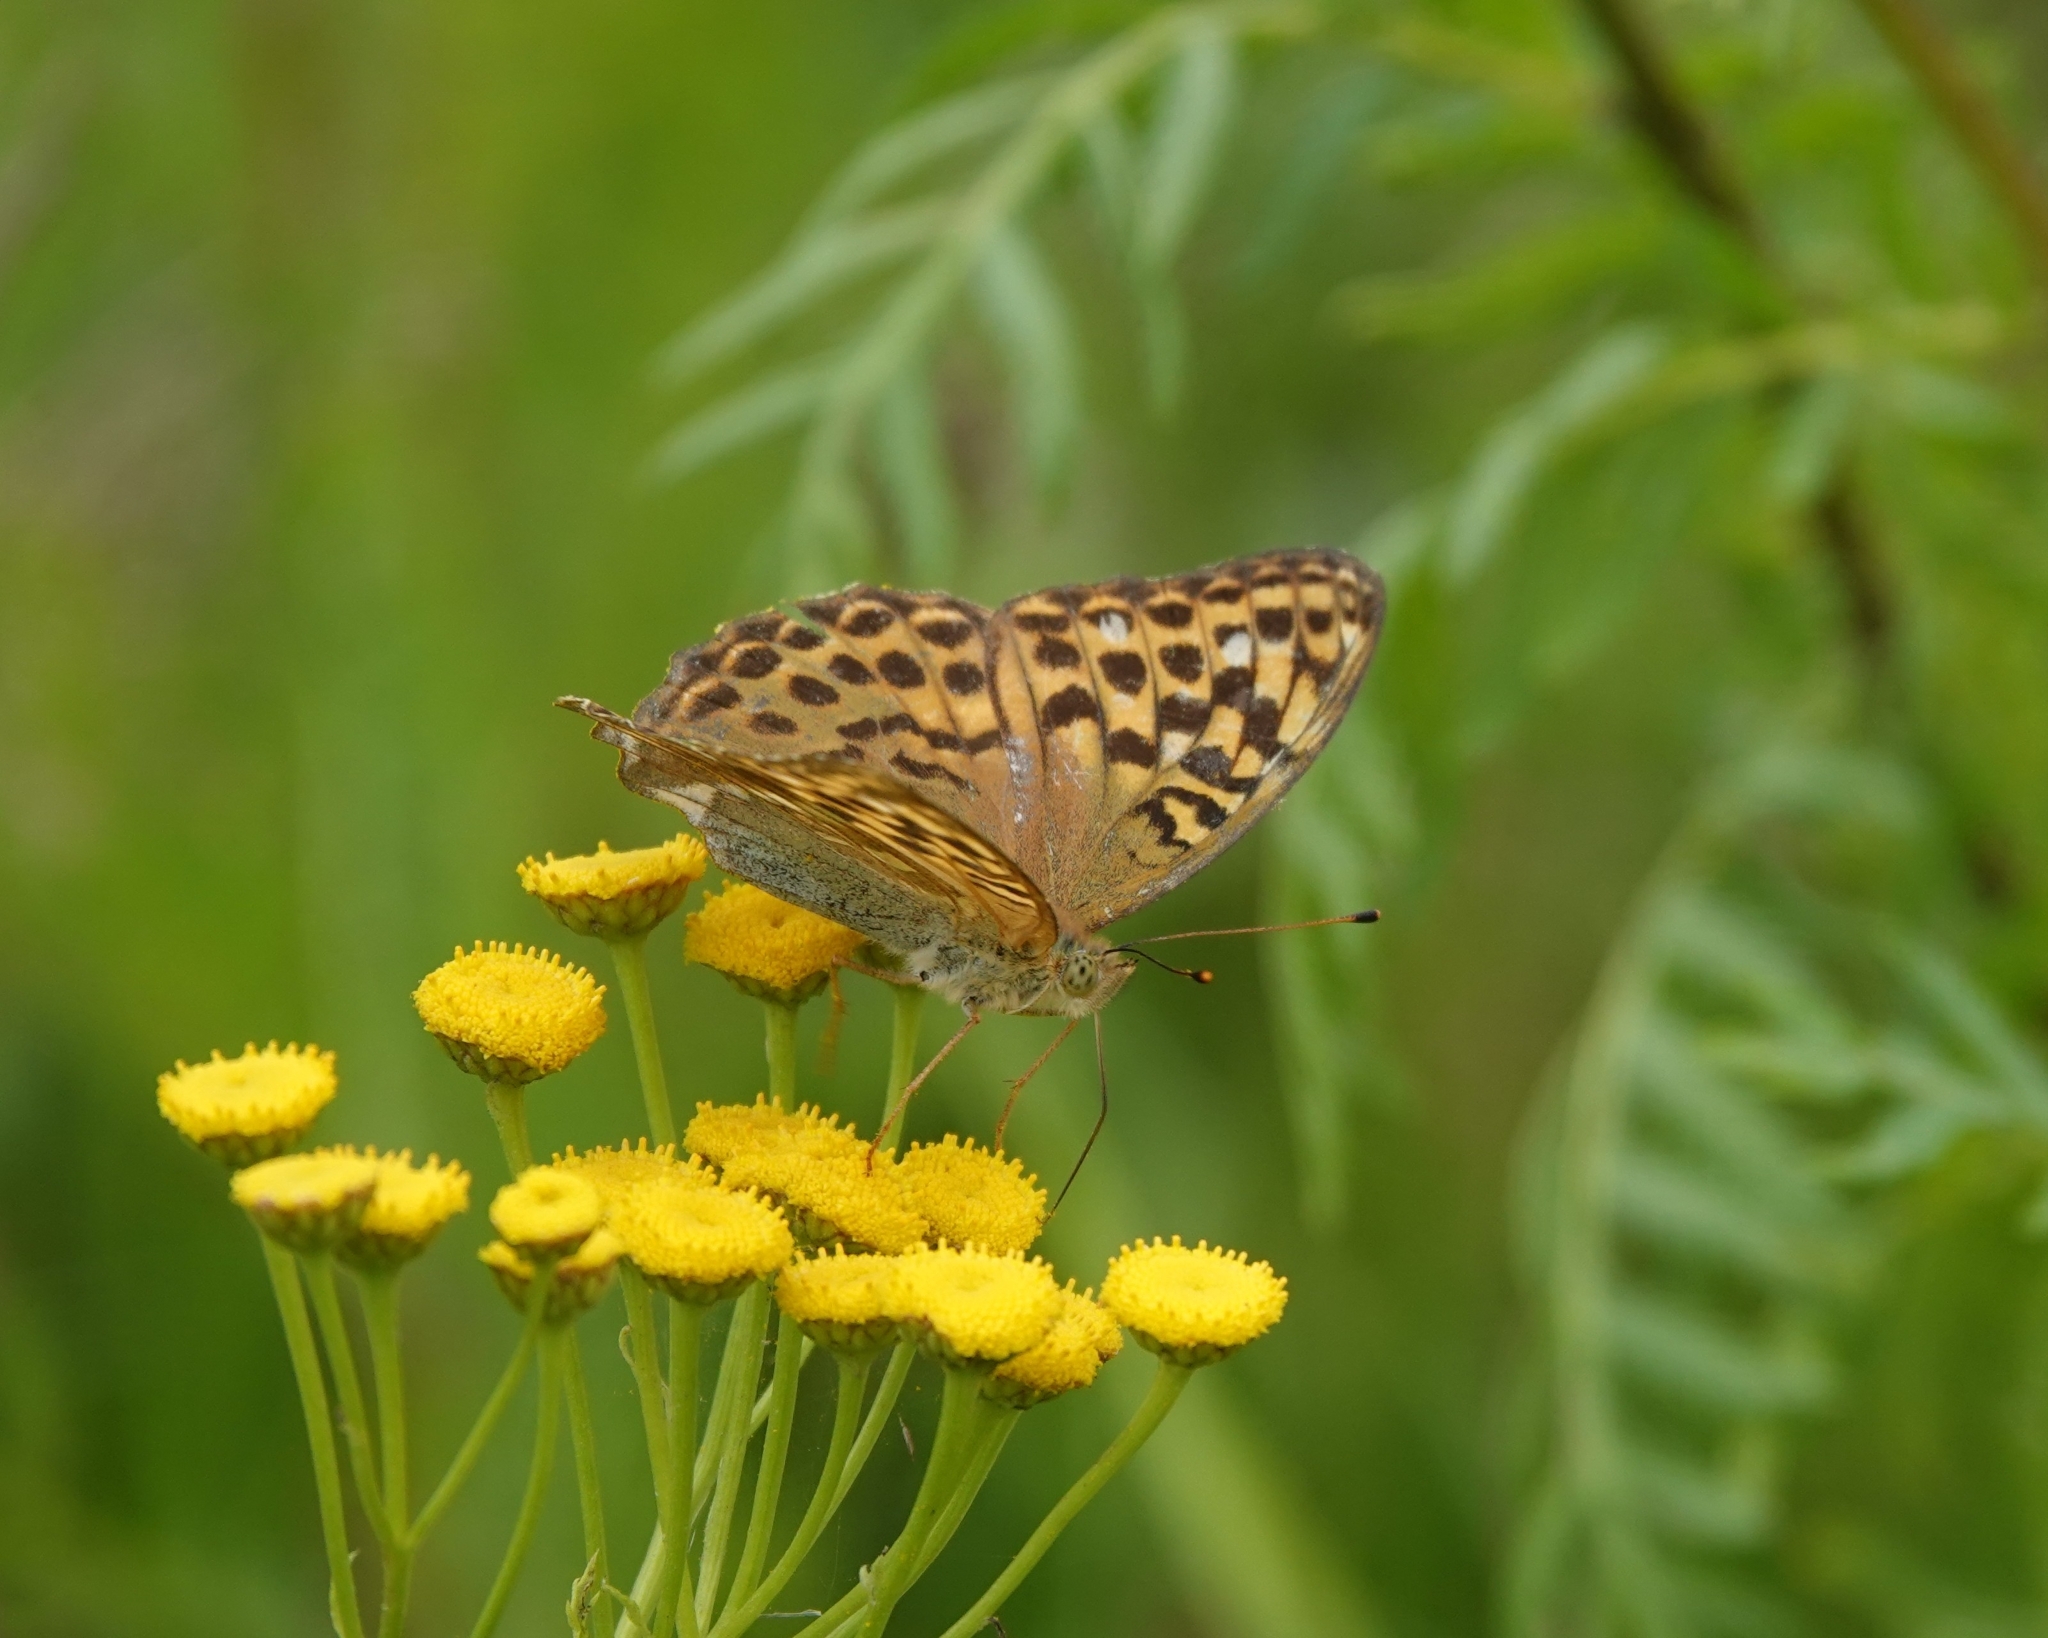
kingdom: Animalia
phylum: Arthropoda
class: Insecta
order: Lepidoptera
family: Nymphalidae
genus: Argynnis
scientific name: Argynnis paphia
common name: Silver-washed fritillary
